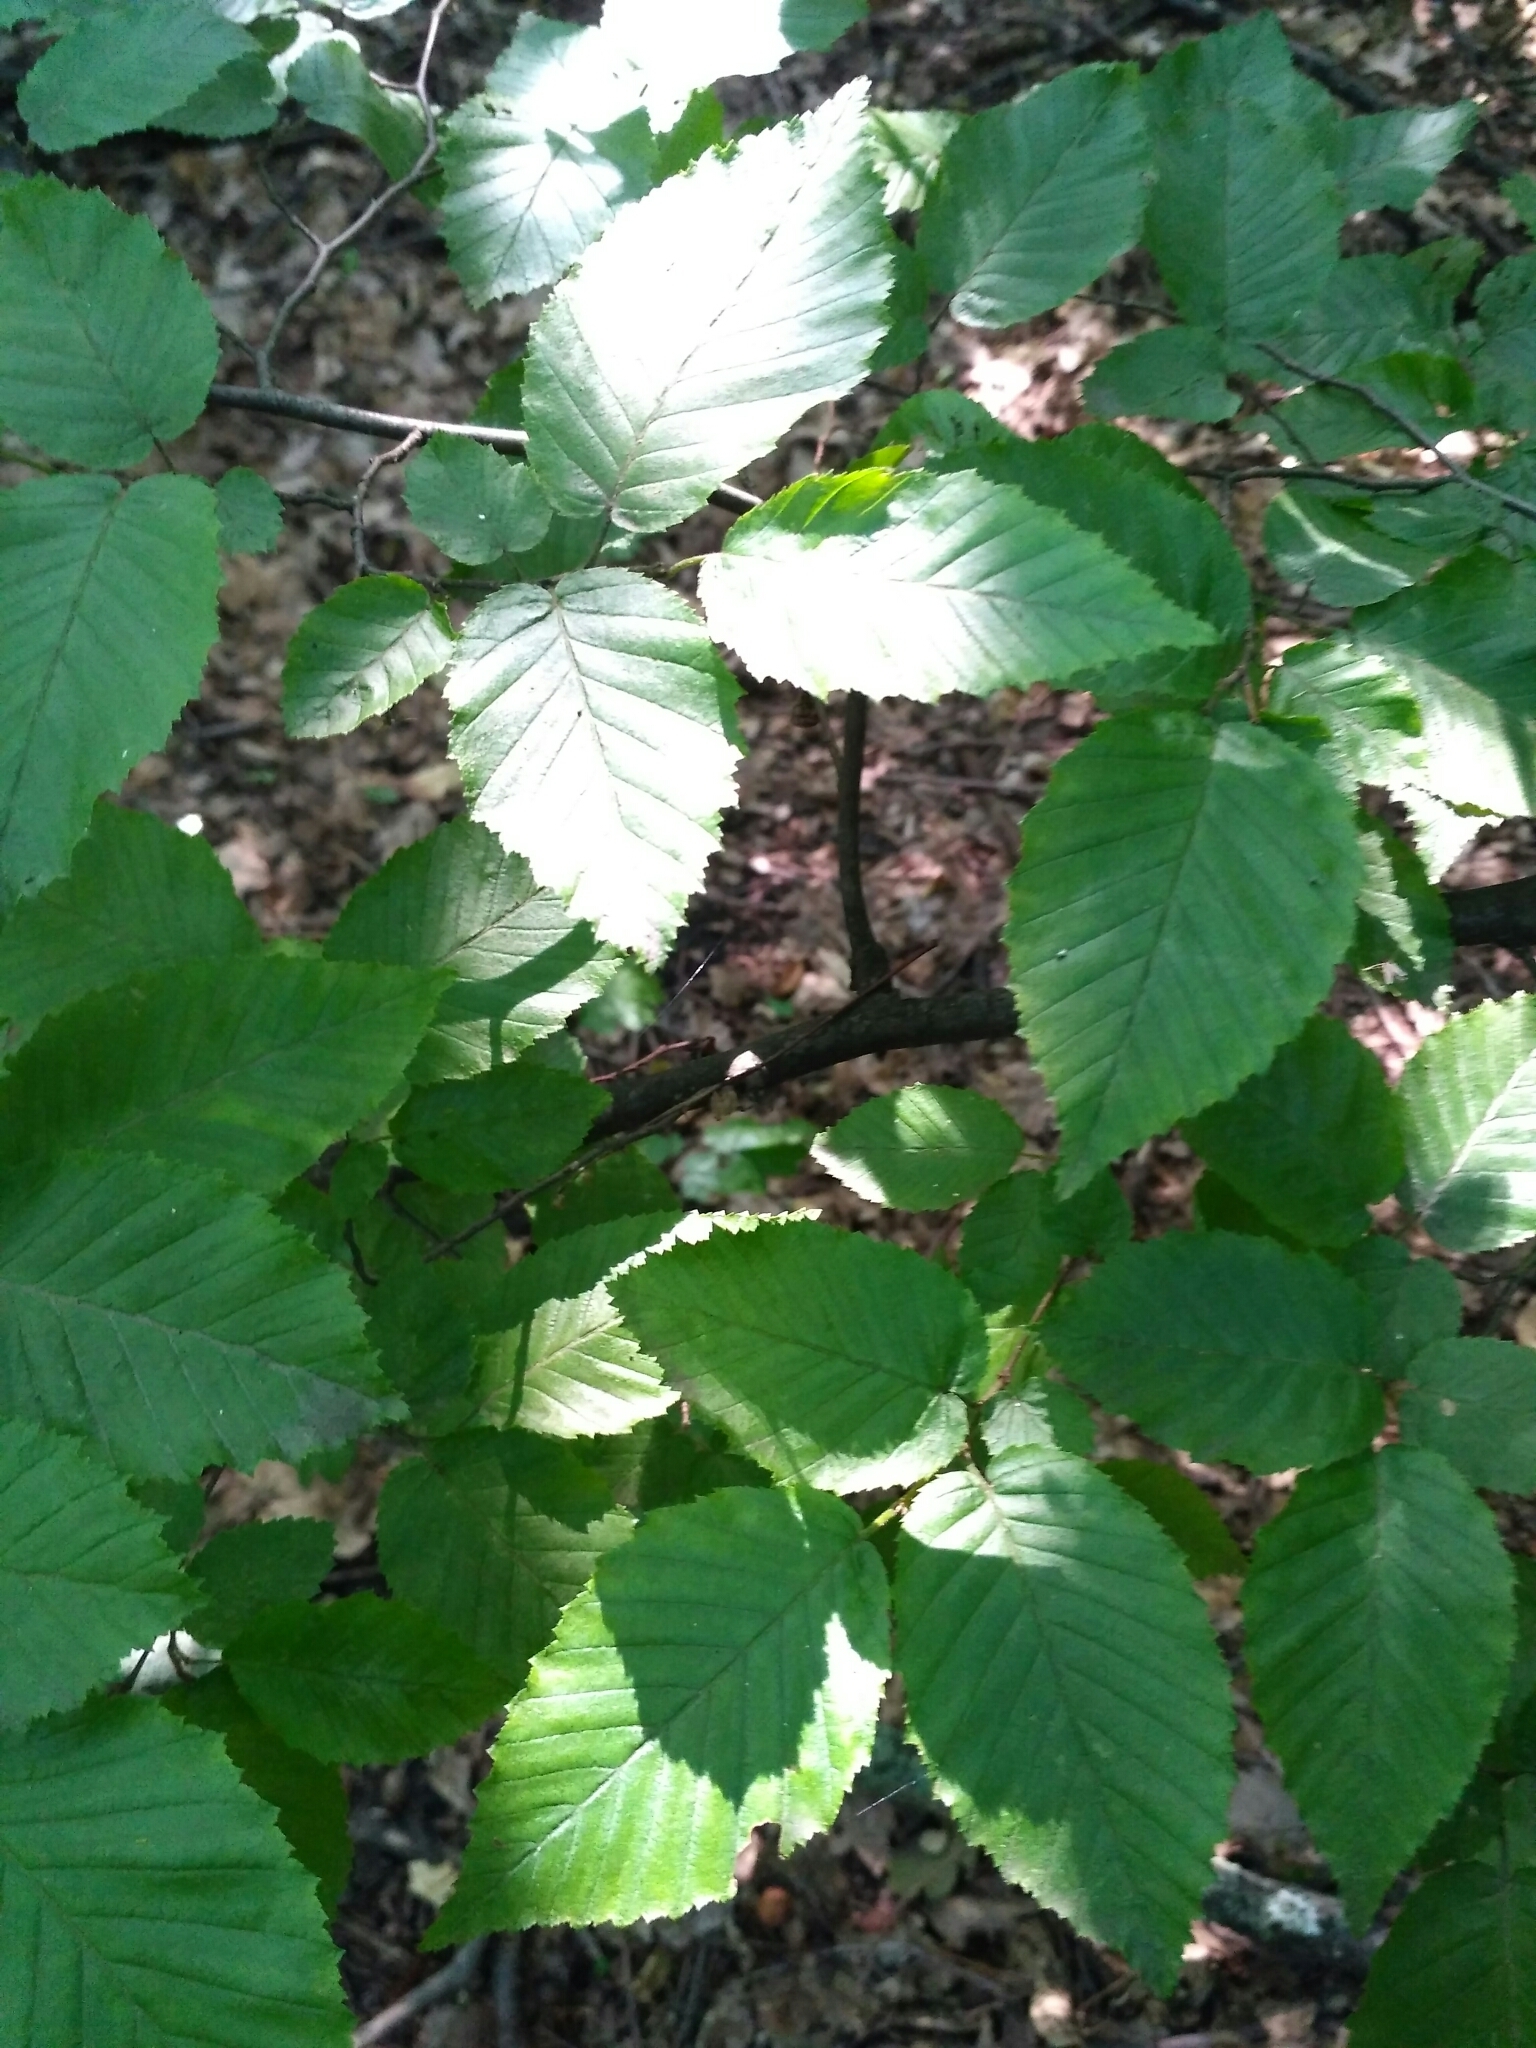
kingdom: Plantae
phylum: Tracheophyta
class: Magnoliopsida
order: Fagales
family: Betulaceae
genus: Carpinus
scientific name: Carpinus betulus
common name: Hornbeam
